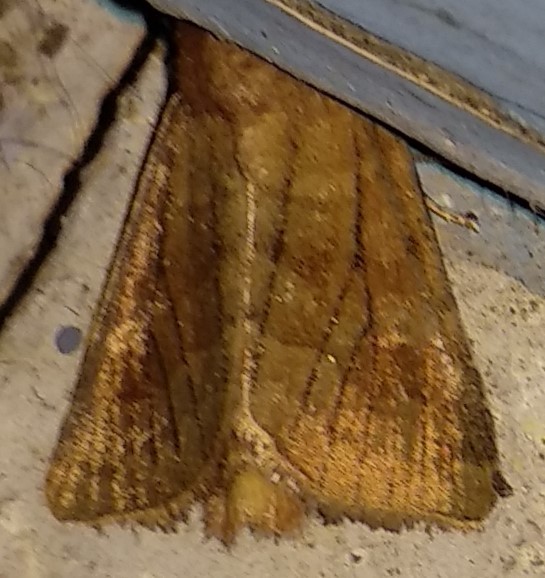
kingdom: Animalia
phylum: Arthropoda
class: Insecta
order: Lepidoptera
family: Noctuidae
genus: Nephelodes
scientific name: Nephelodes minians
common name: Bronzed cutworm
